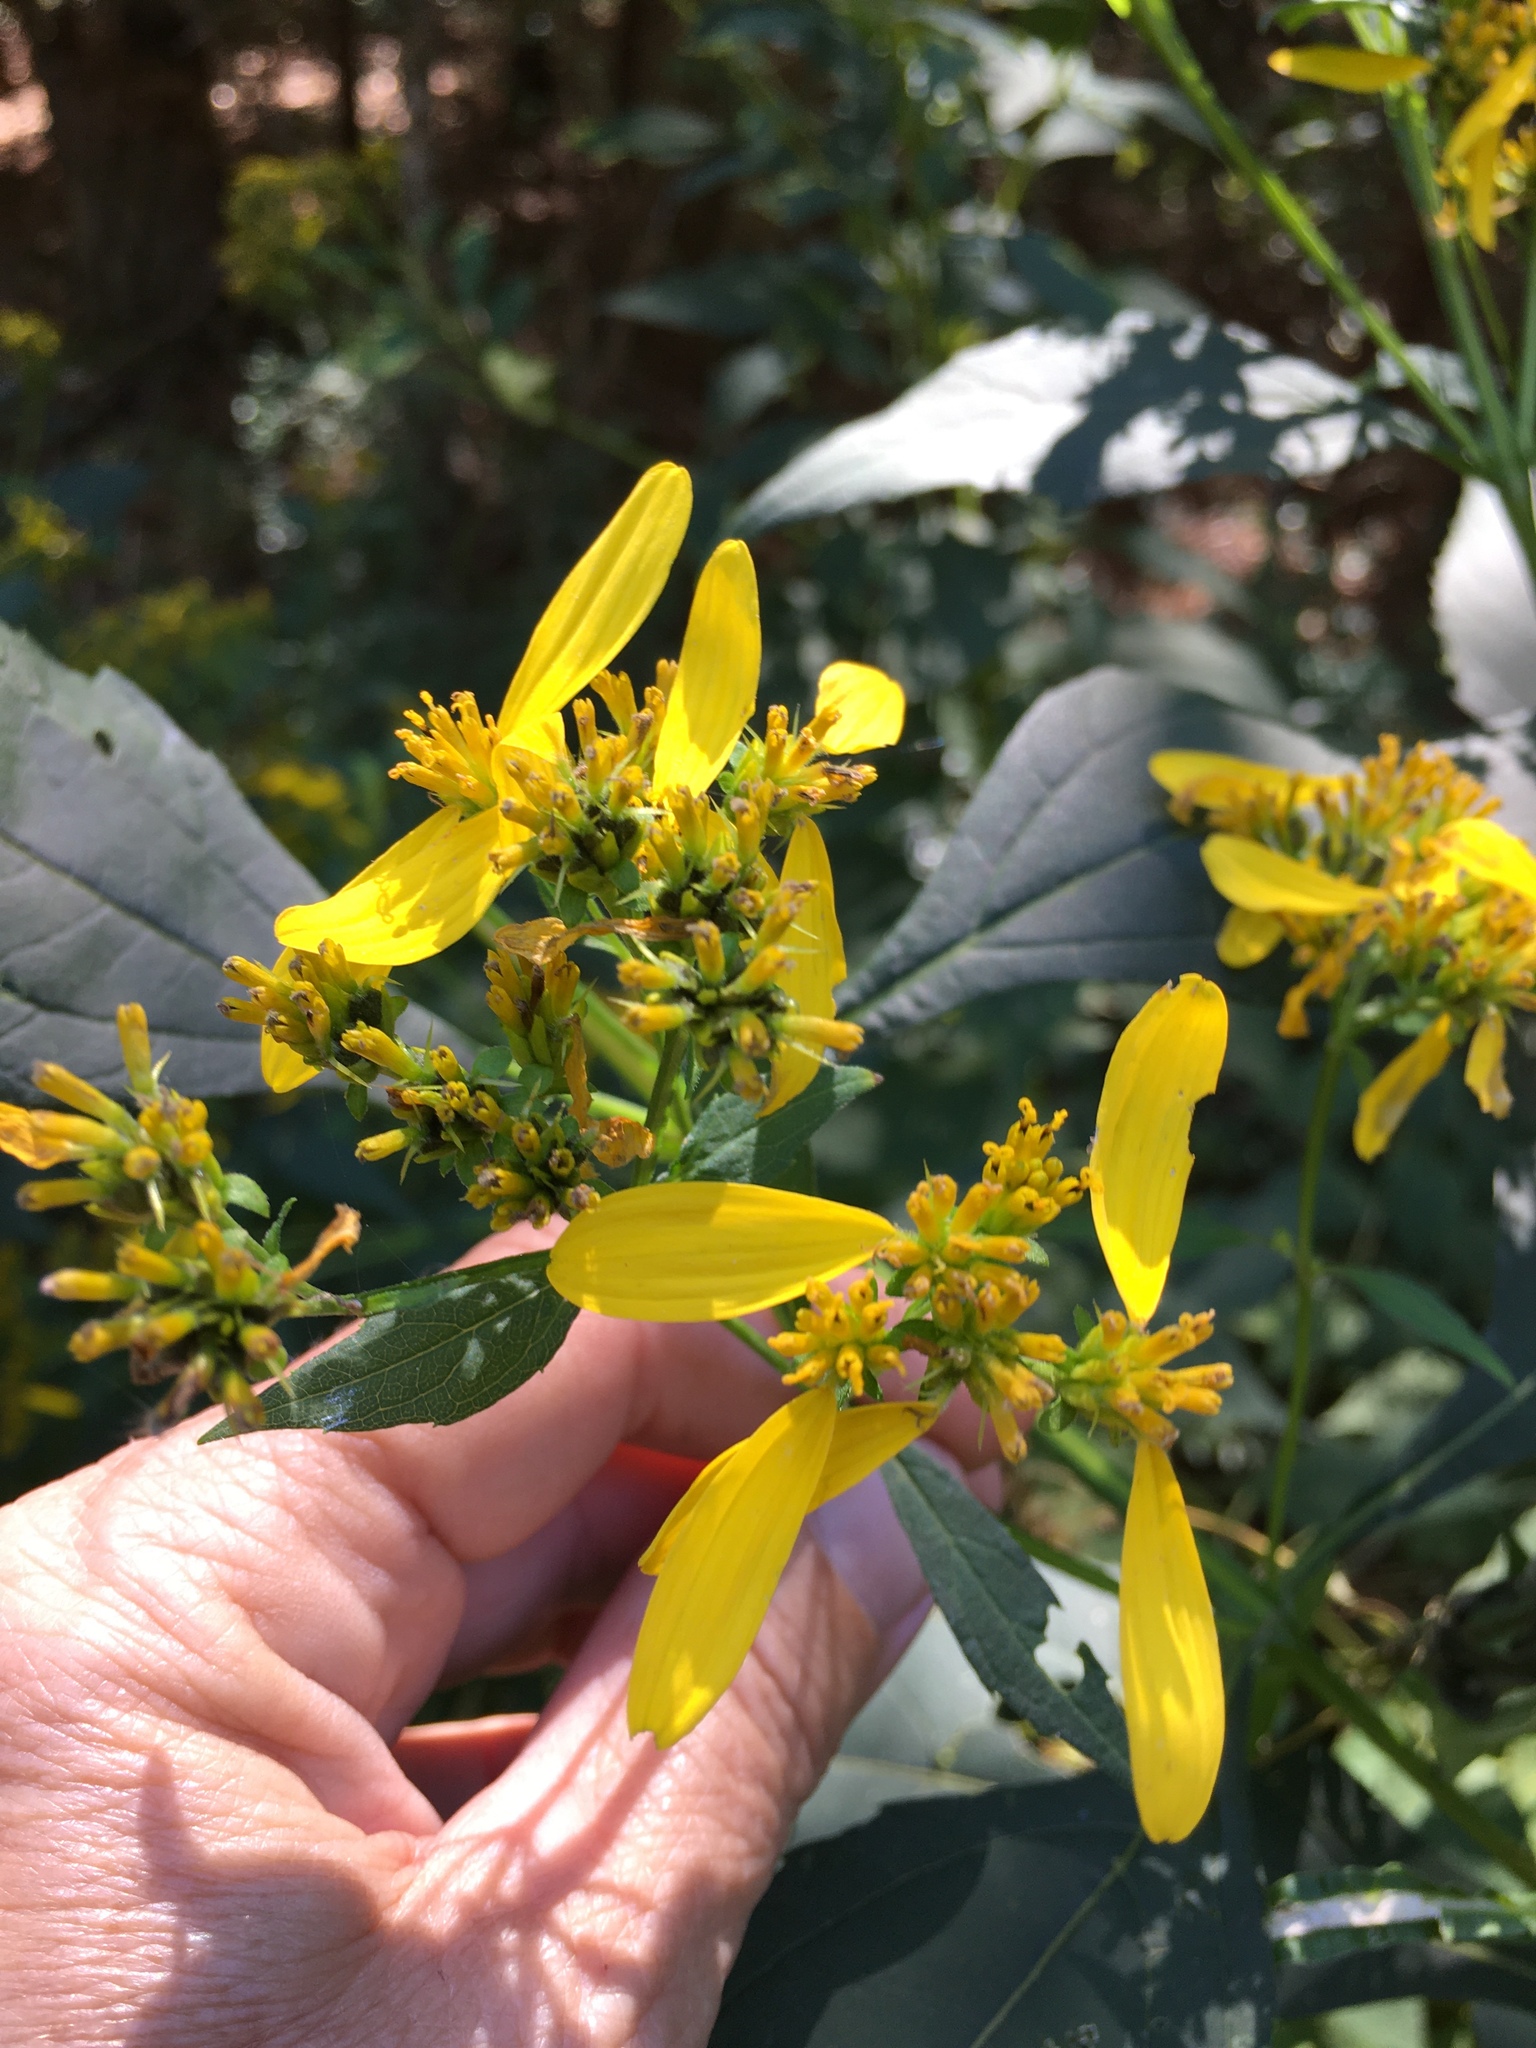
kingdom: Plantae
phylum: Tracheophyta
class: Magnoliopsida
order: Asterales
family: Asteraceae
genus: Verbesina
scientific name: Verbesina occidentalis
